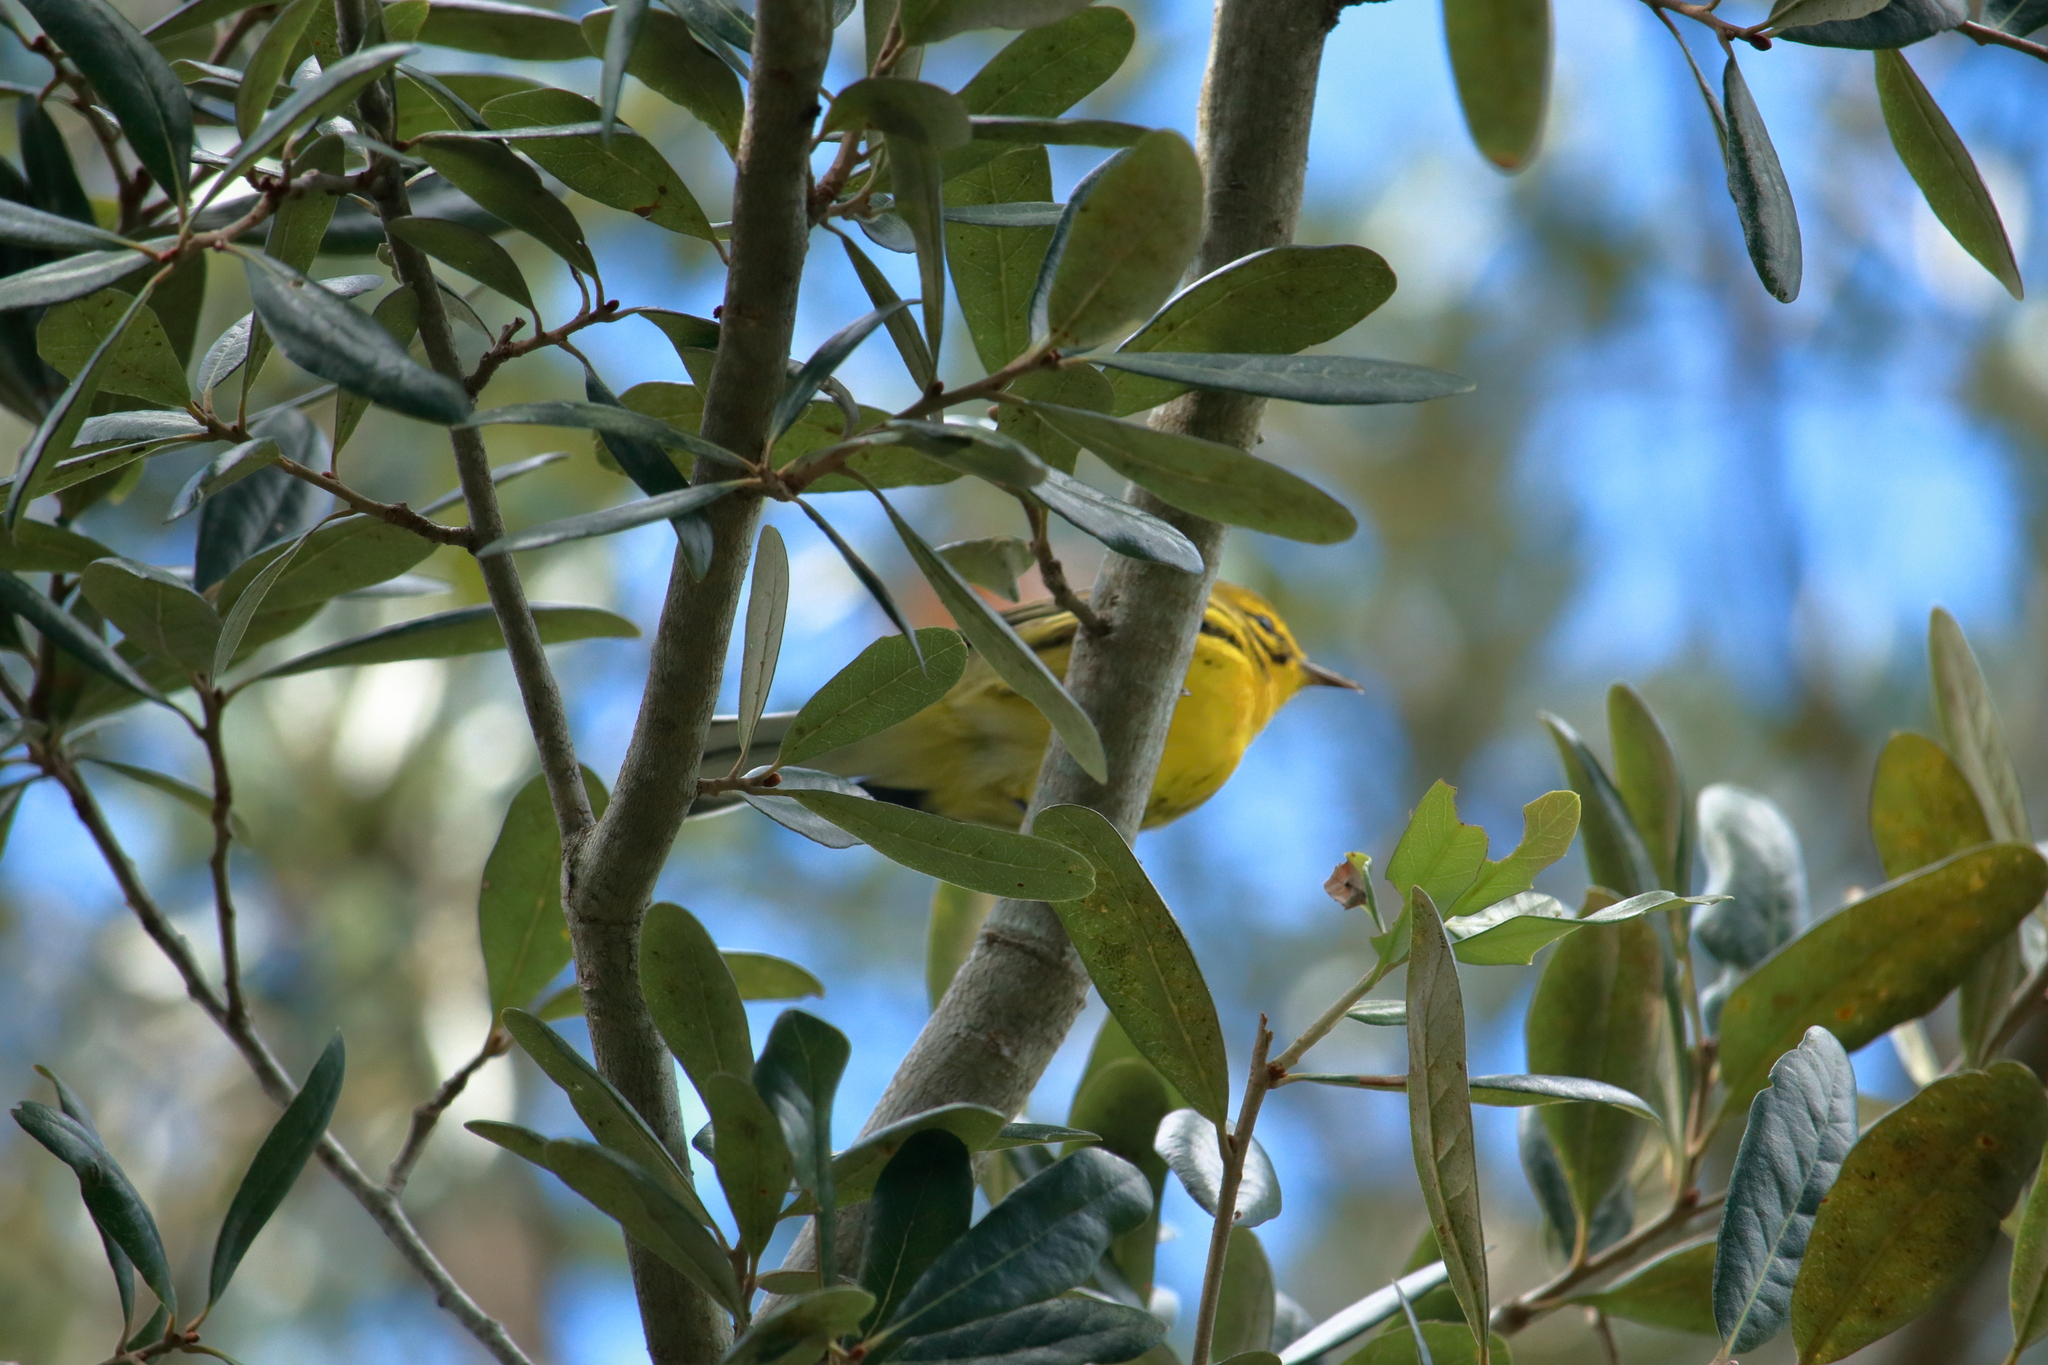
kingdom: Animalia
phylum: Chordata
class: Aves
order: Passeriformes
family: Parulidae
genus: Setophaga
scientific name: Setophaga discolor
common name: Prairie warbler
